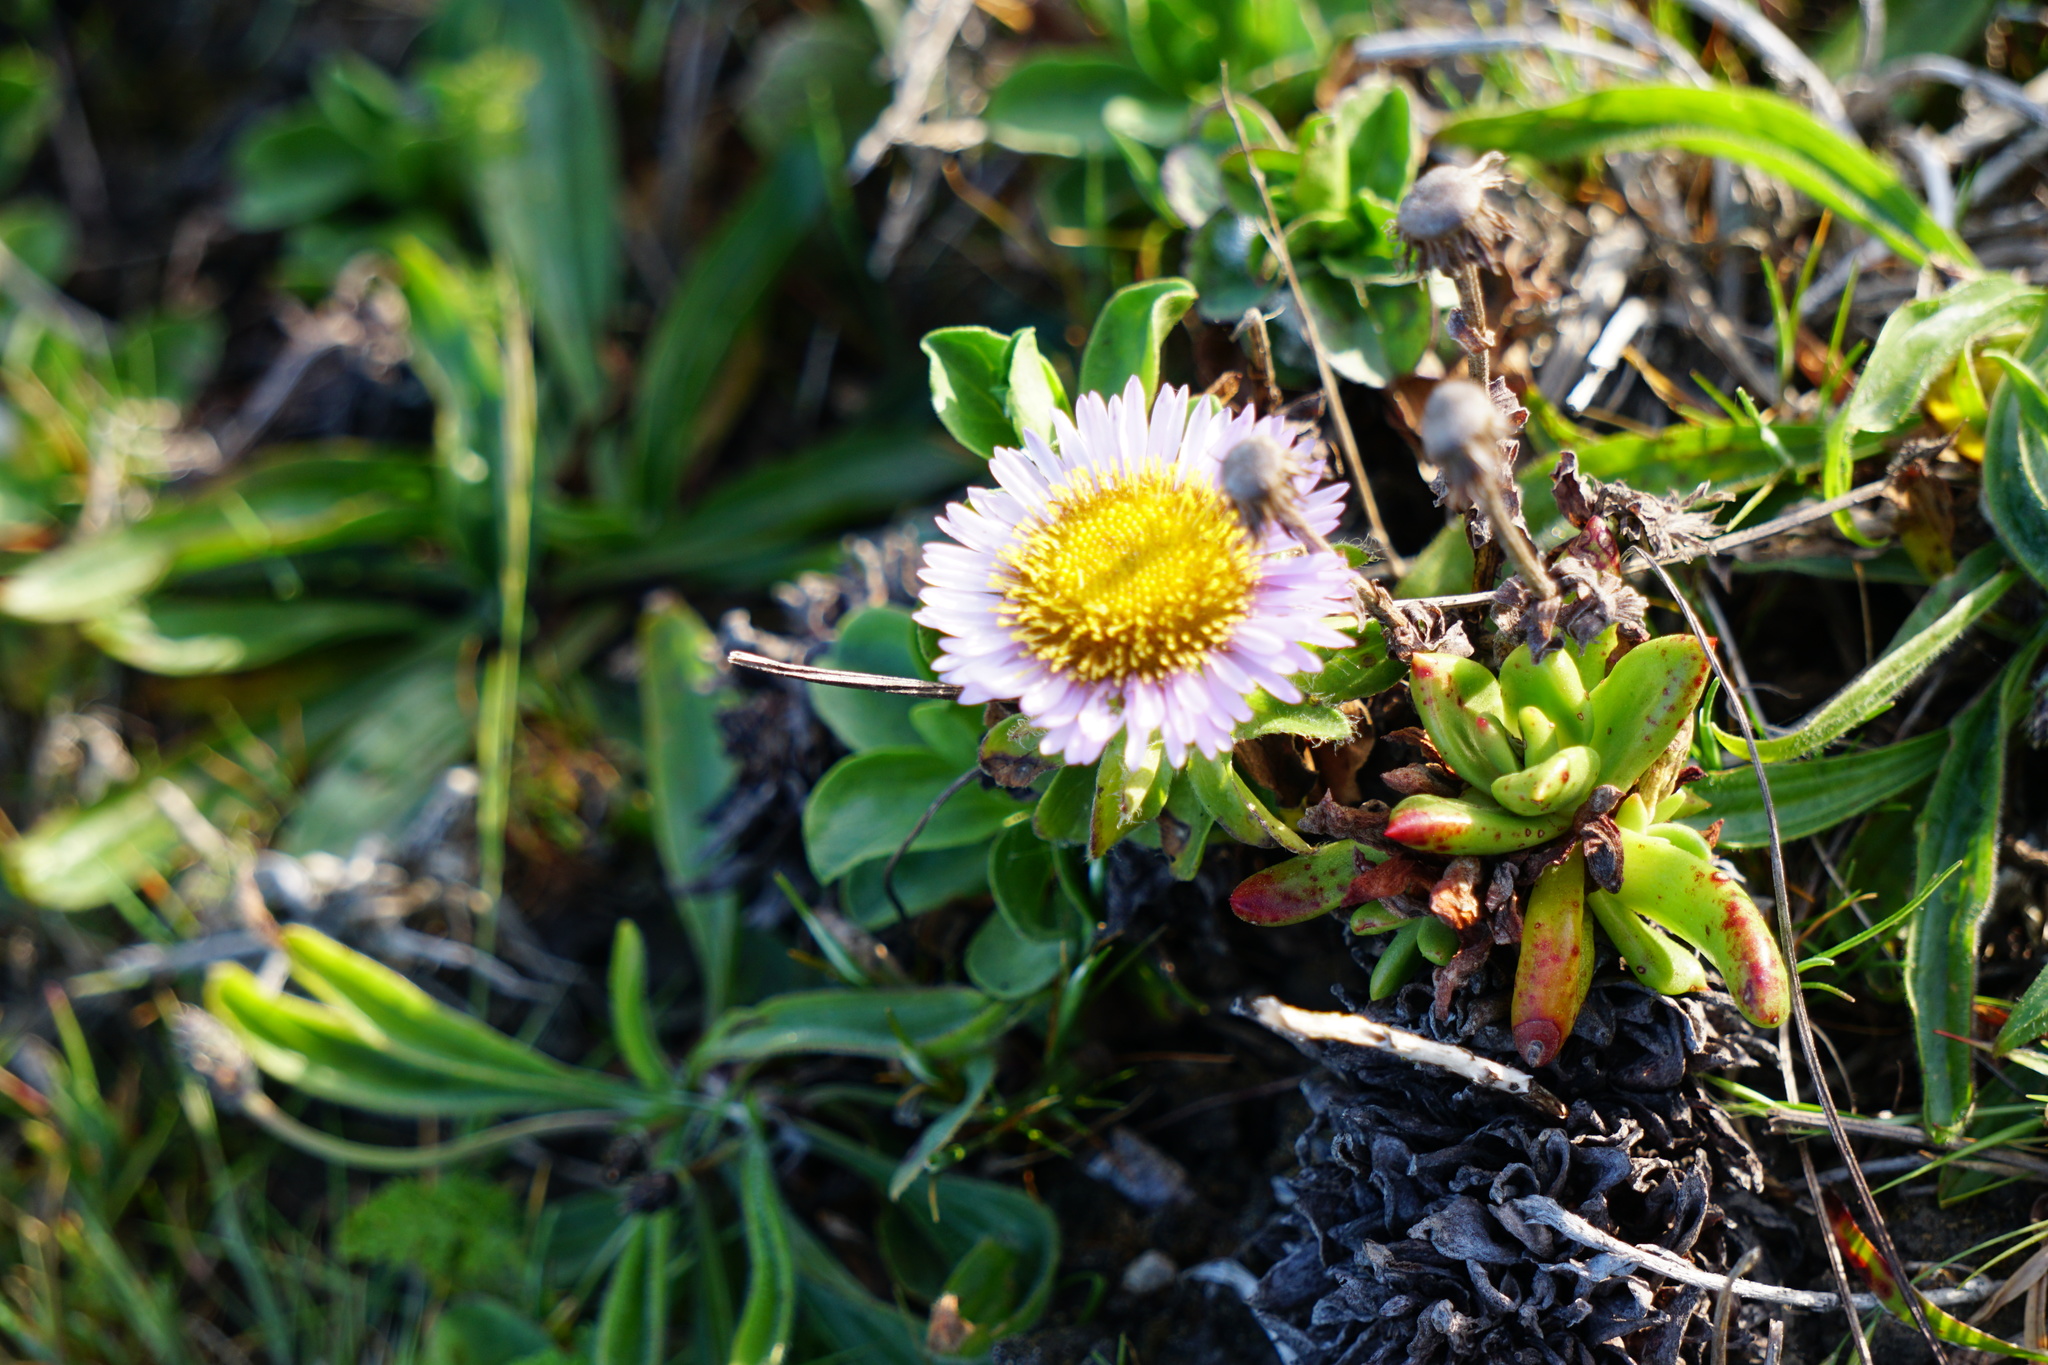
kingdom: Plantae
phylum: Tracheophyta
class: Magnoliopsida
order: Asterales
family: Asteraceae
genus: Erigeron
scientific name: Erigeron glaucus
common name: Seaside daisy
